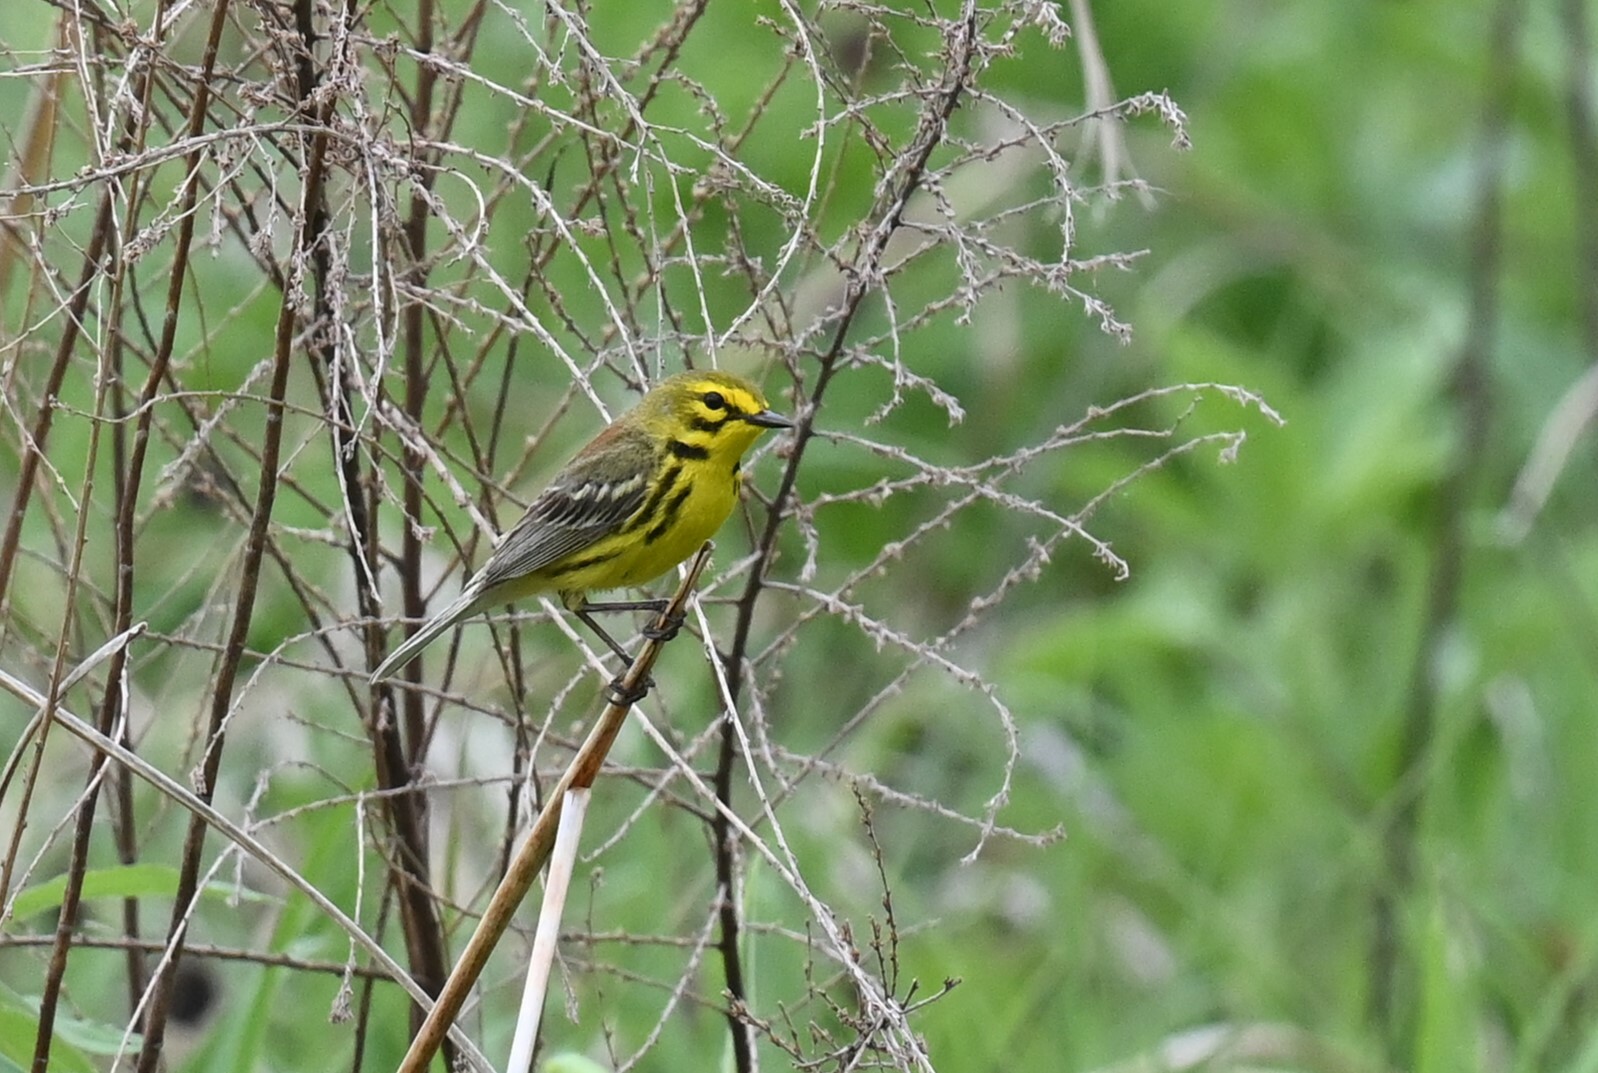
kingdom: Animalia
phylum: Chordata
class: Aves
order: Passeriformes
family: Parulidae
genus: Setophaga
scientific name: Setophaga discolor
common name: Prairie warbler
